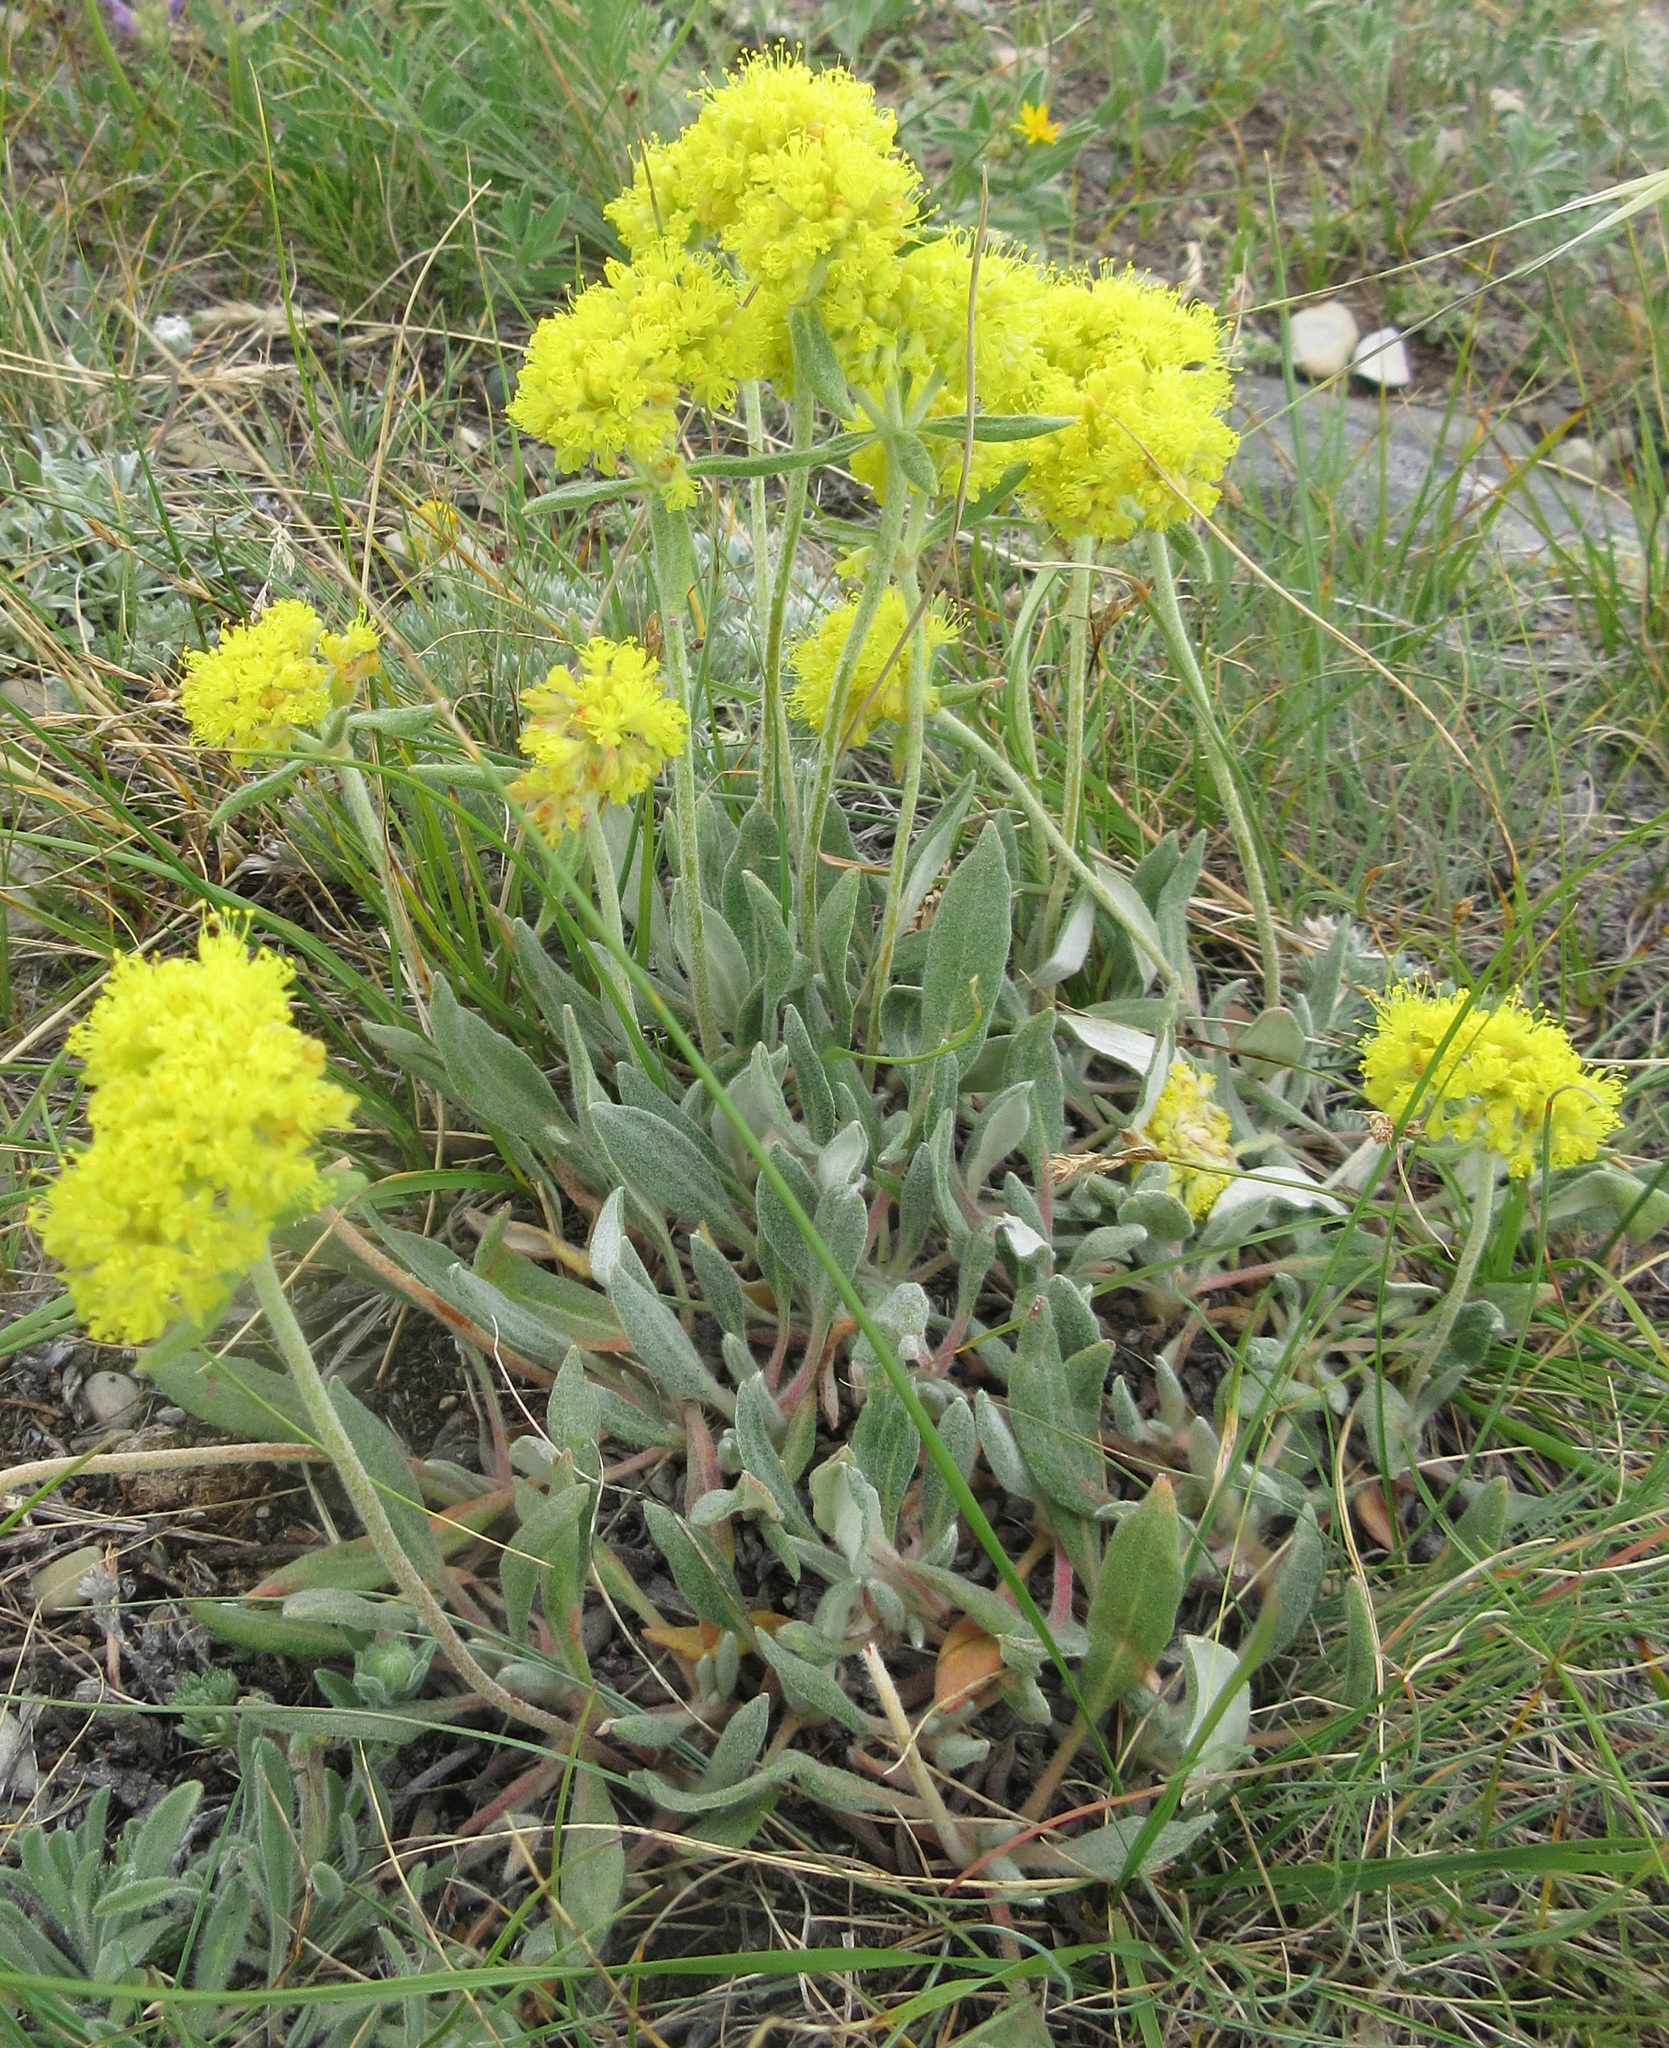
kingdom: Plantae
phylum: Tracheophyta
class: Magnoliopsida
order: Caryophyllales
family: Polygonaceae
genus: Eriogonum
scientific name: Eriogonum flavum
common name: Alpine golden wild buckwheat
